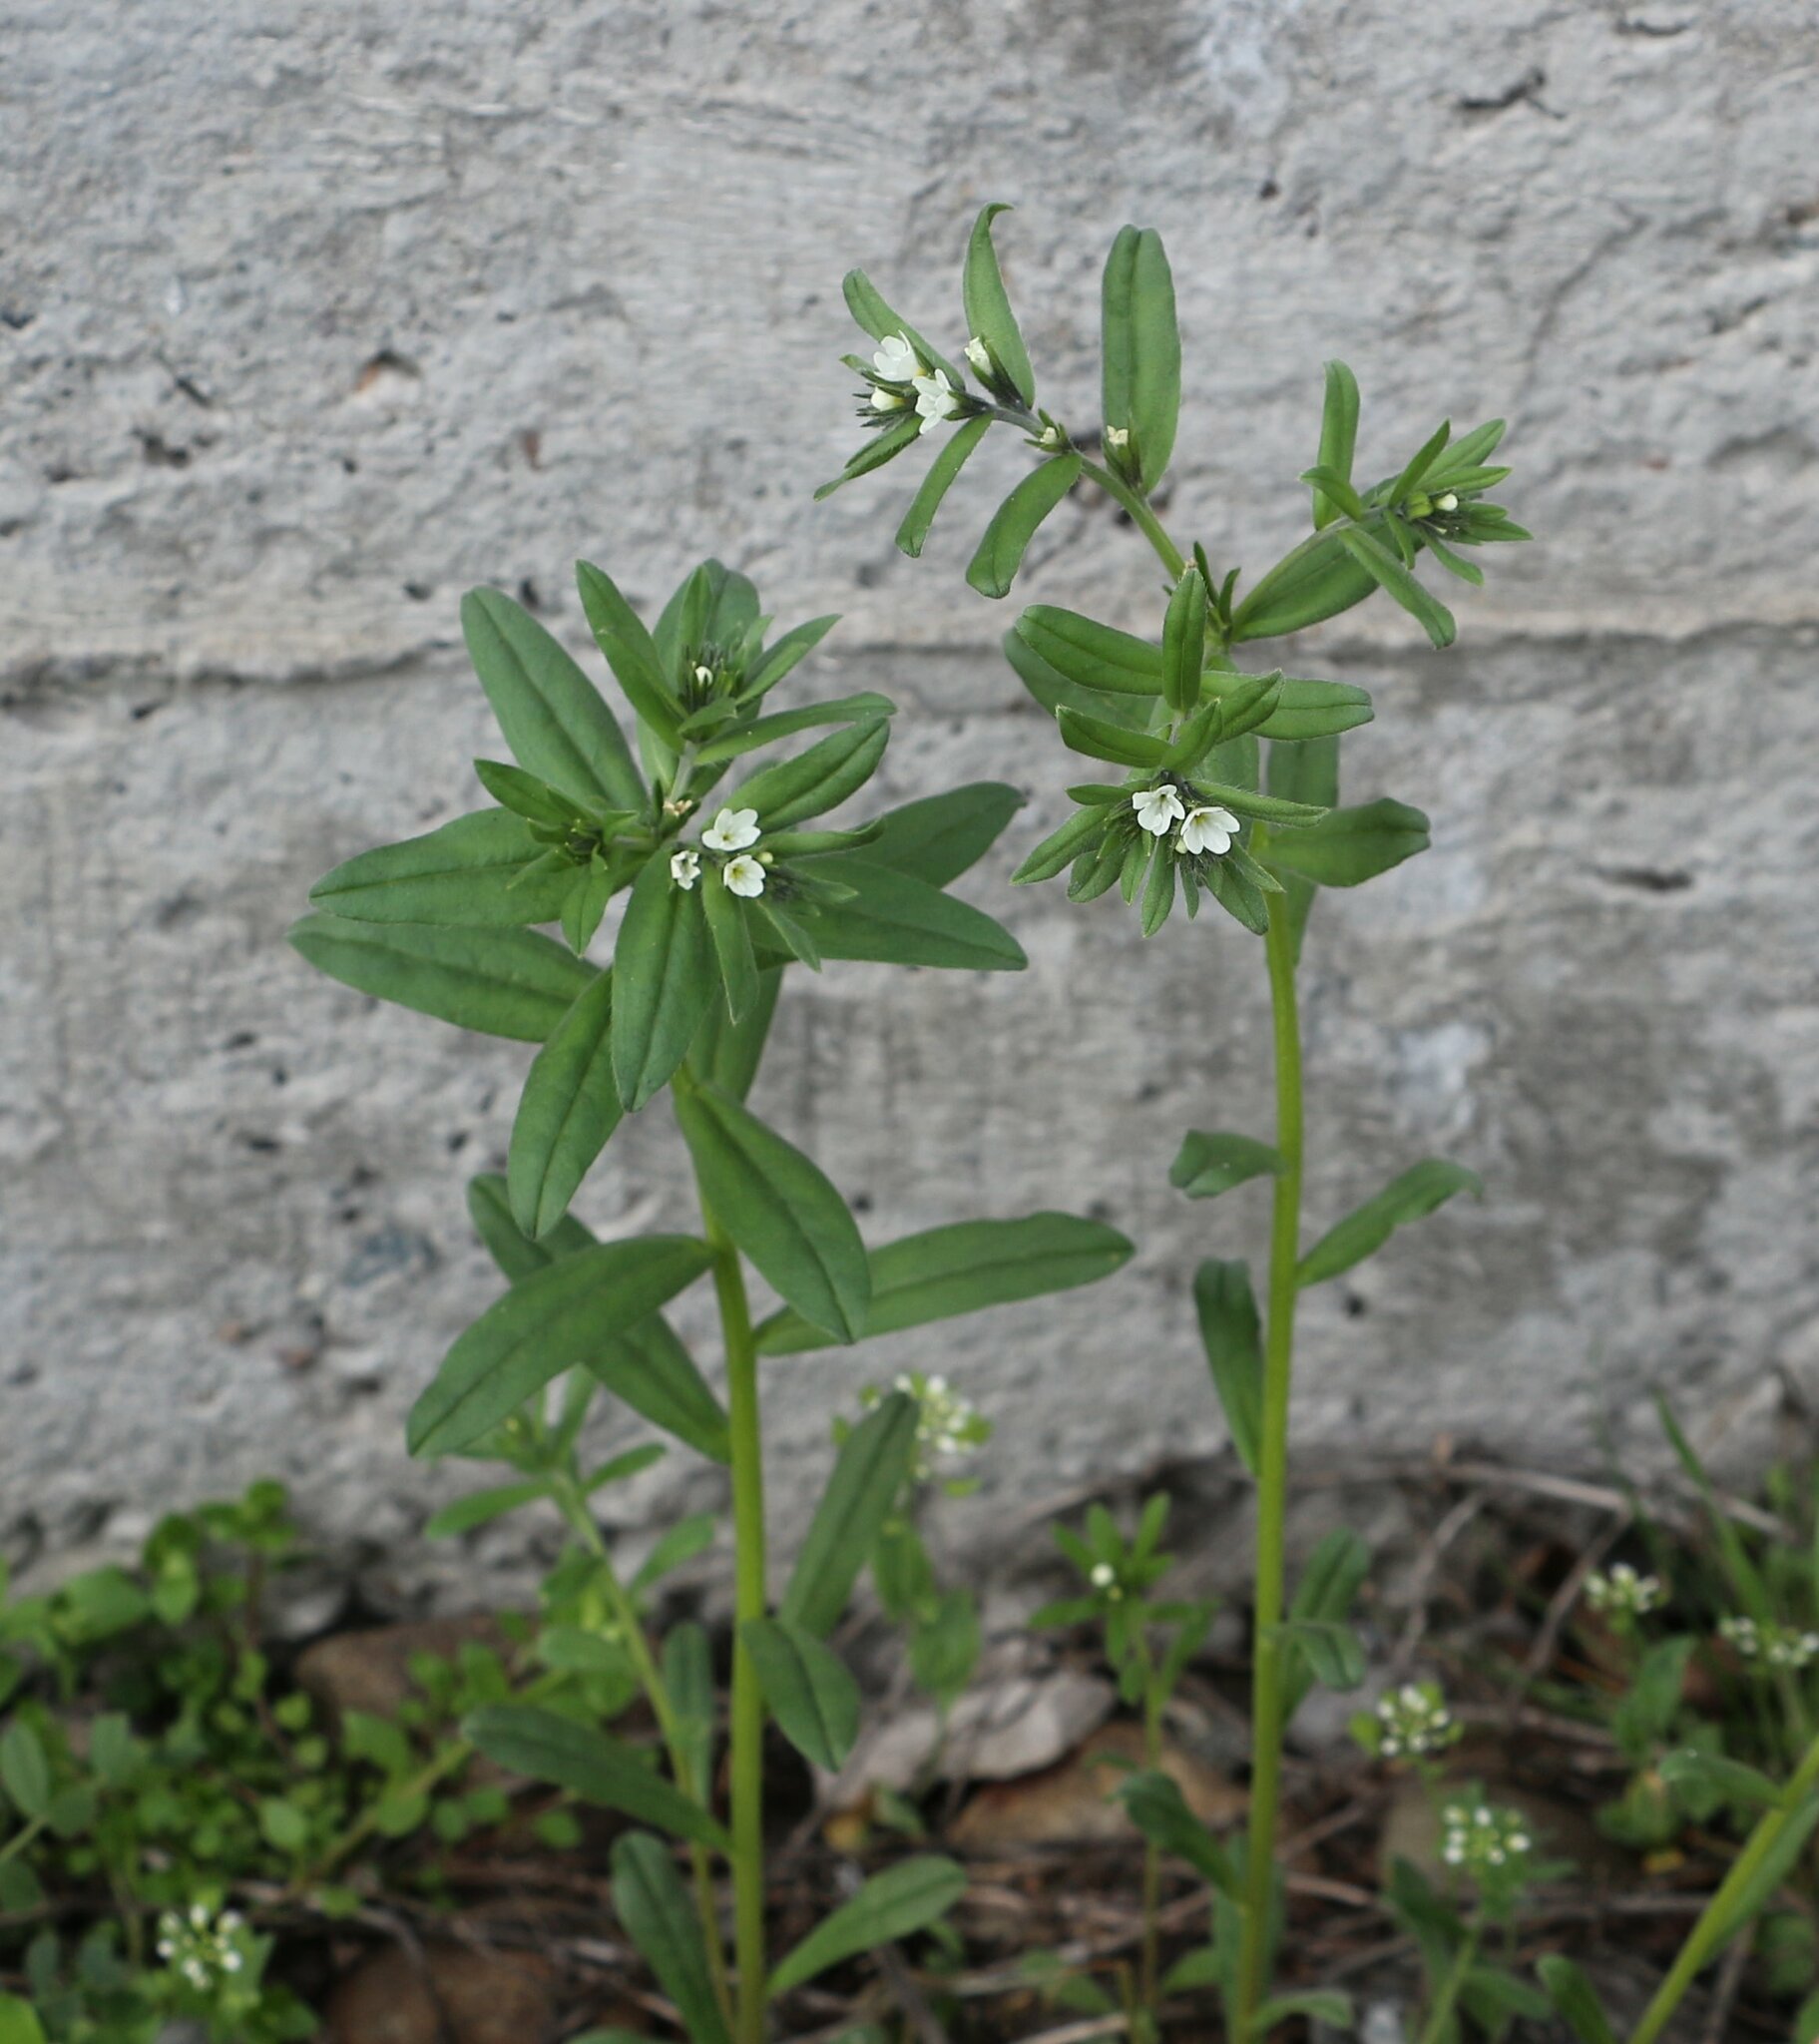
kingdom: Plantae
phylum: Tracheophyta
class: Magnoliopsida
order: Boraginales
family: Boraginaceae
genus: Buglossoides
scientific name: Buglossoides arvensis
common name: Corn gromwell
